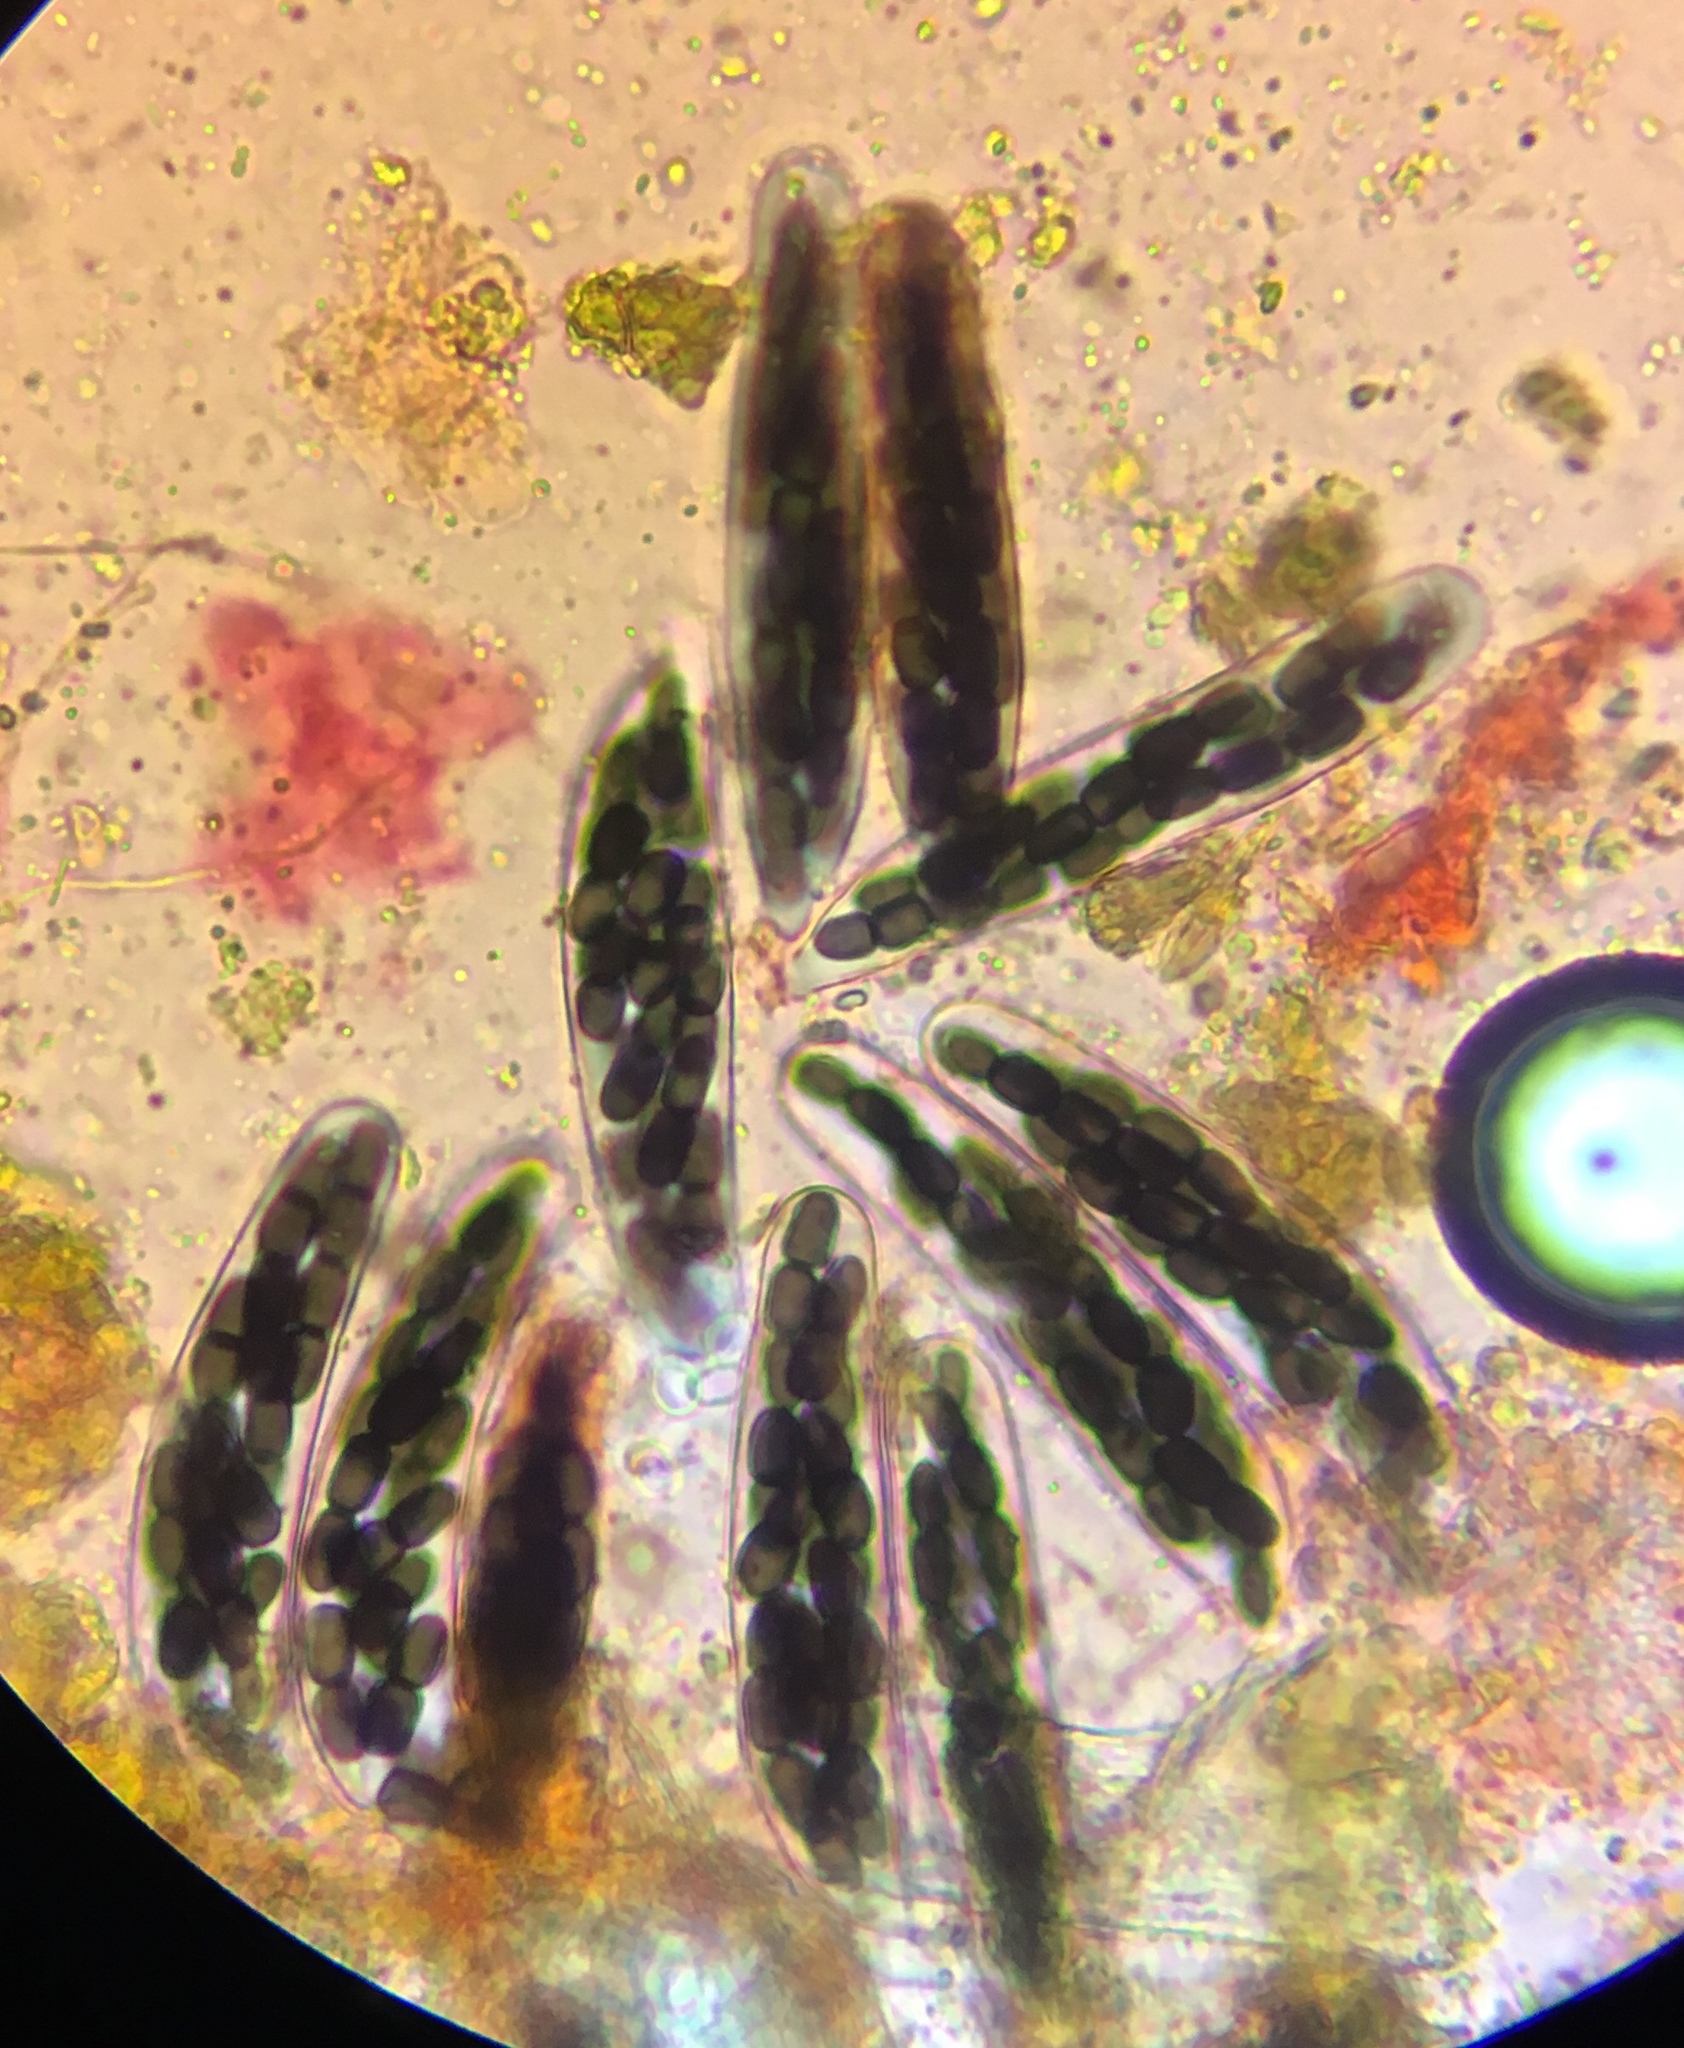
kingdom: Fungi
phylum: Ascomycota
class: Dothideomycetes
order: Pleosporales
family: Sporormiaceae
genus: Sporormiella
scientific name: Sporormiella minima
